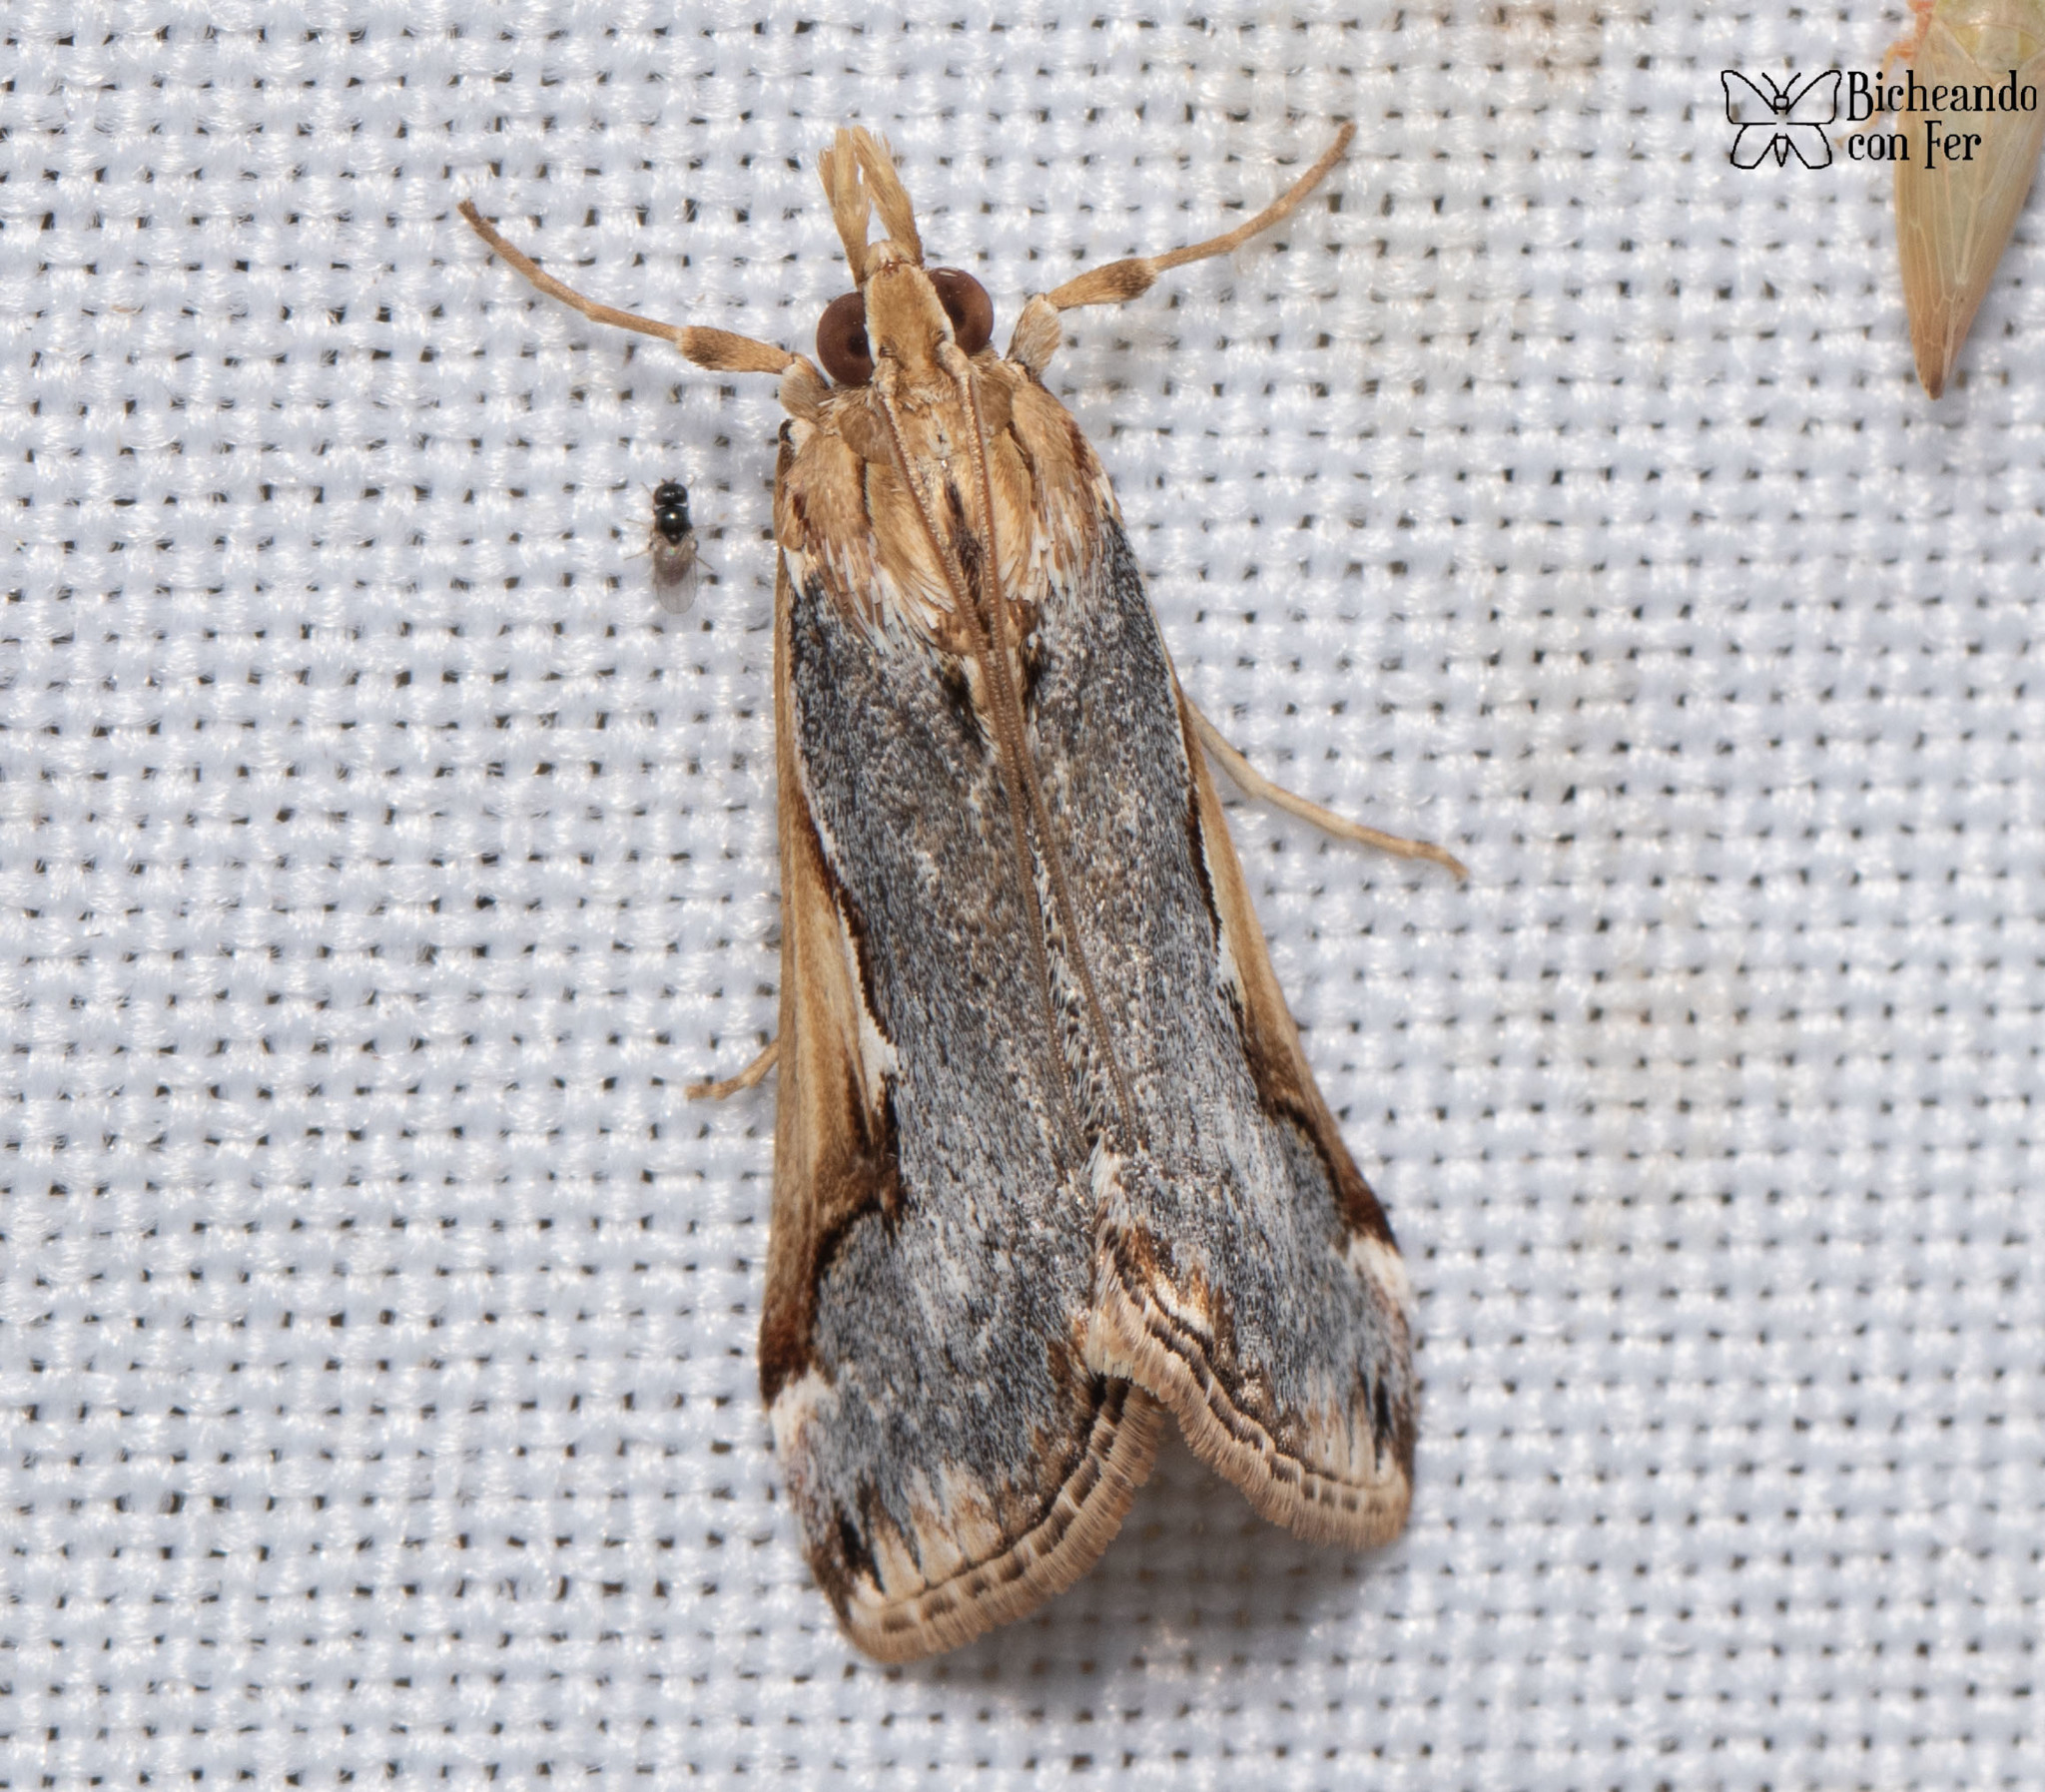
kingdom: Animalia
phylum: Arthropoda
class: Insecta
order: Lepidoptera
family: Crambidae
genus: Loxostege
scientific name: Loxostege albiceralis
